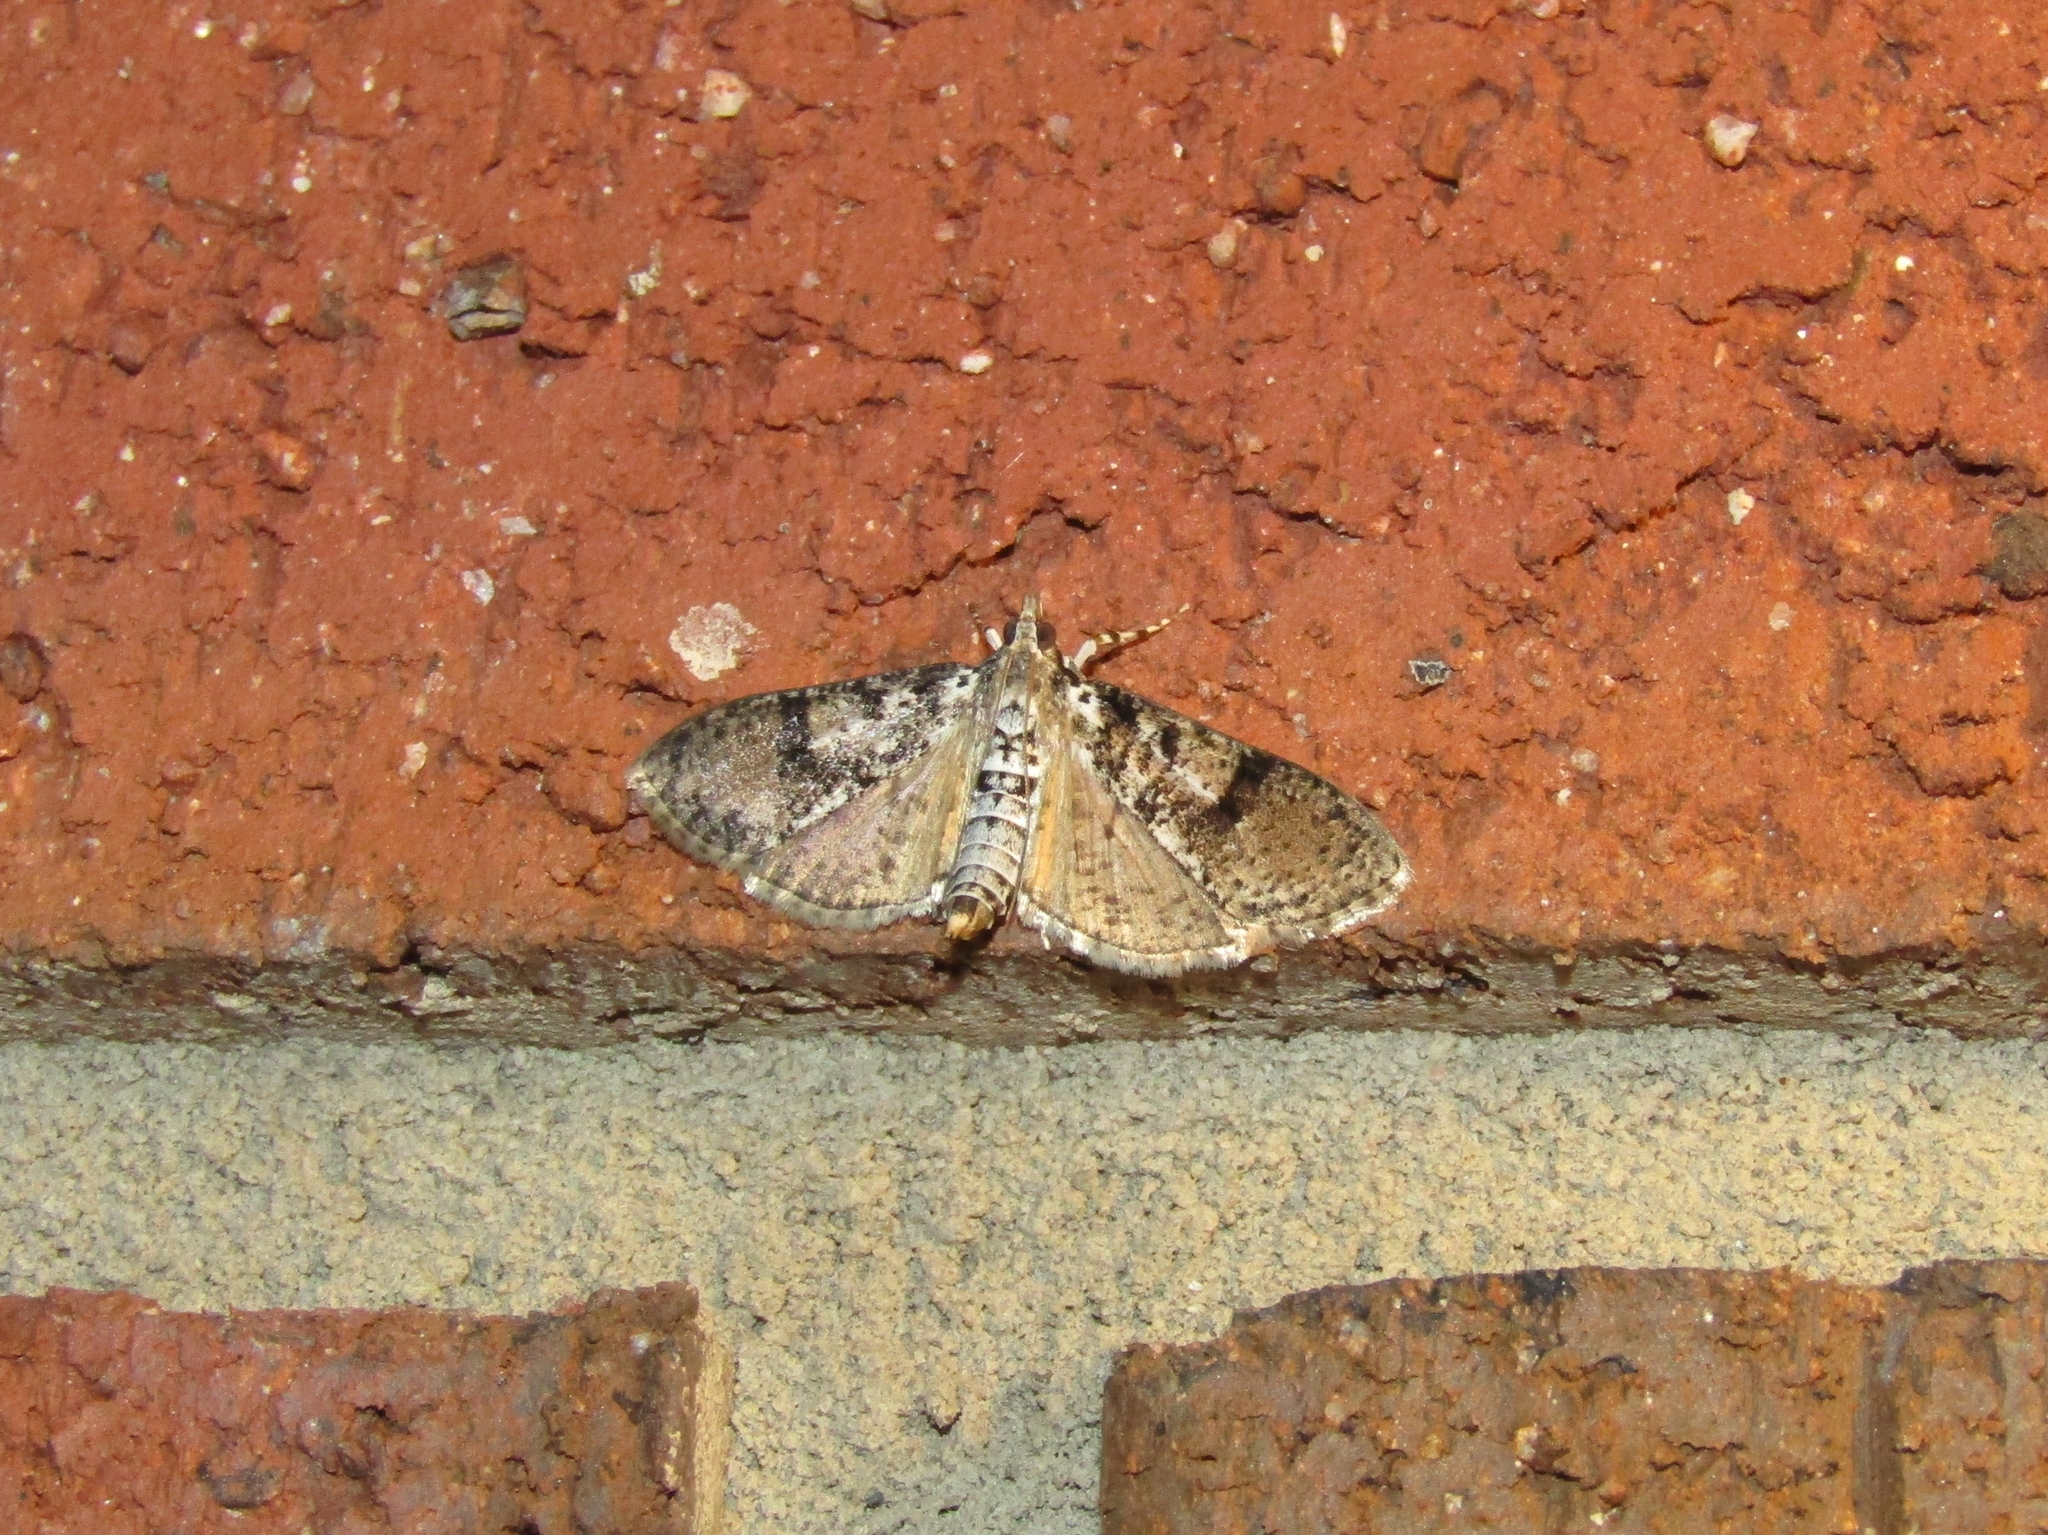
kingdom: Animalia
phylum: Arthropoda
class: Insecta
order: Lepidoptera
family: Crambidae
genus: Palpita
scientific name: Palpita magniferalis
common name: Splendid palpita moth
